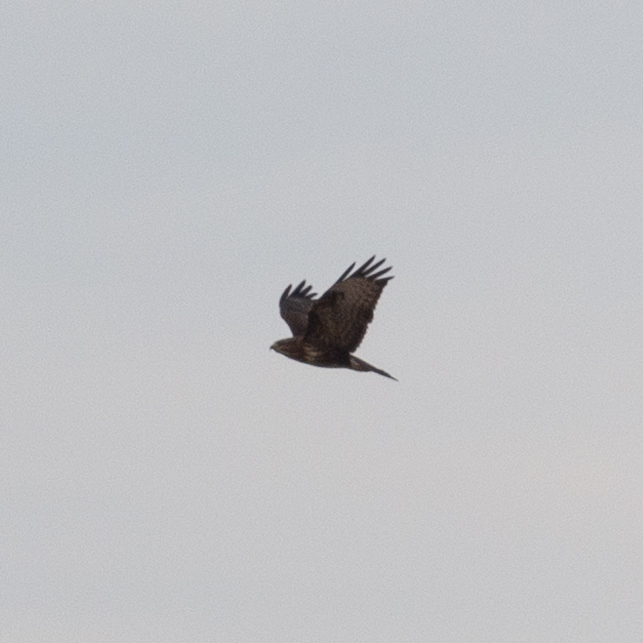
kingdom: Animalia
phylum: Chordata
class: Aves
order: Accipitriformes
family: Accipitridae
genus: Buteo
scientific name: Buteo buteo
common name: Common buzzard
